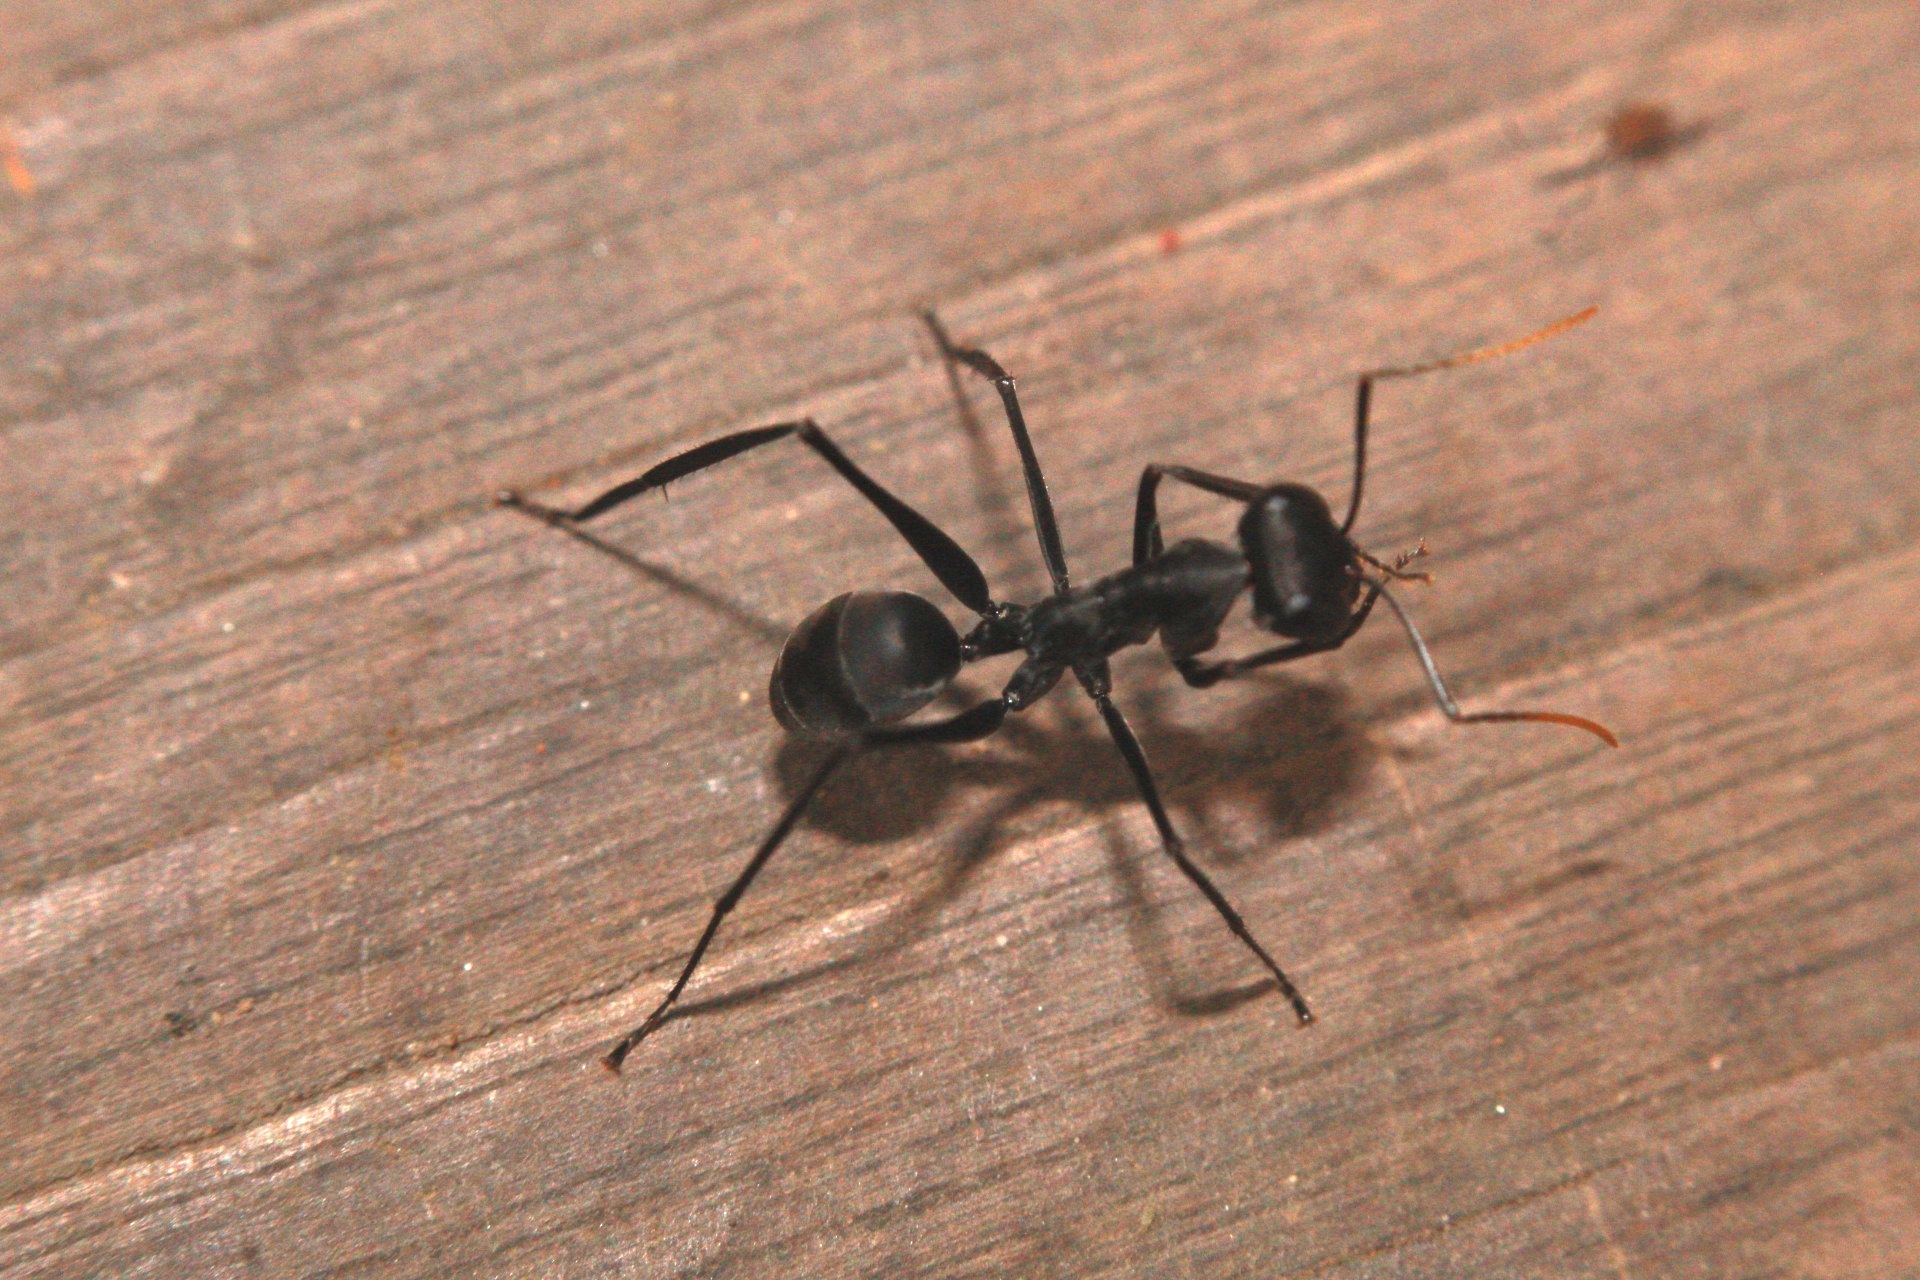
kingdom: Animalia
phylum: Arthropoda
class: Insecta
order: Hymenoptera
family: Formicidae
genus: Gigantiops
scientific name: Gigantiops destructor
